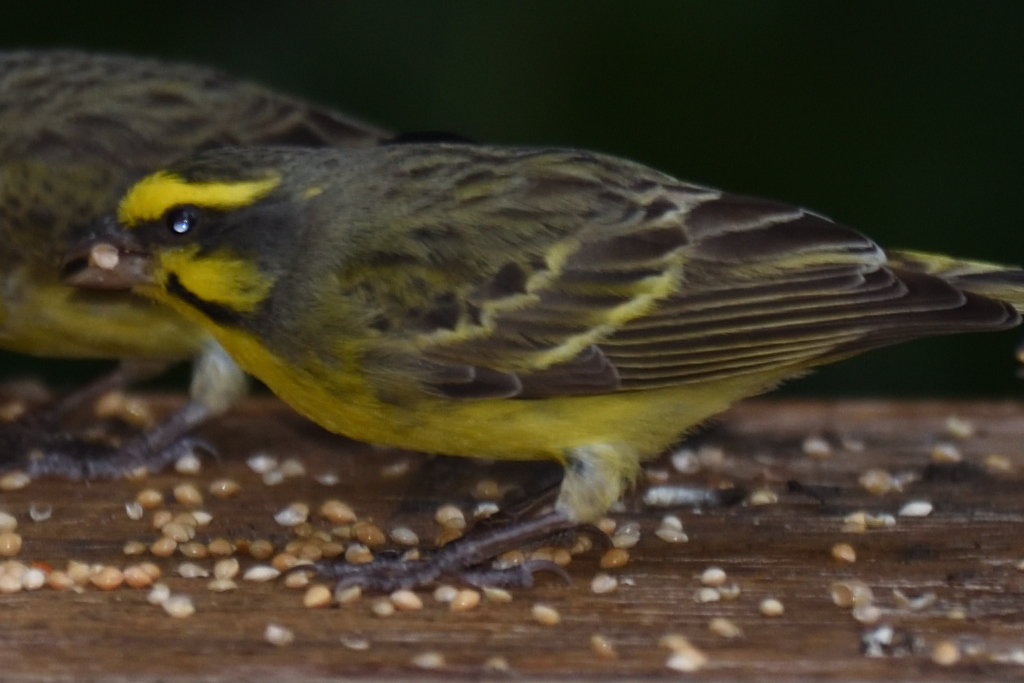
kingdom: Animalia
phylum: Chordata
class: Aves
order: Passeriformes
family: Fringillidae
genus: Crithagra
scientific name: Crithagra mozambica
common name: Yellow-fronted canary
